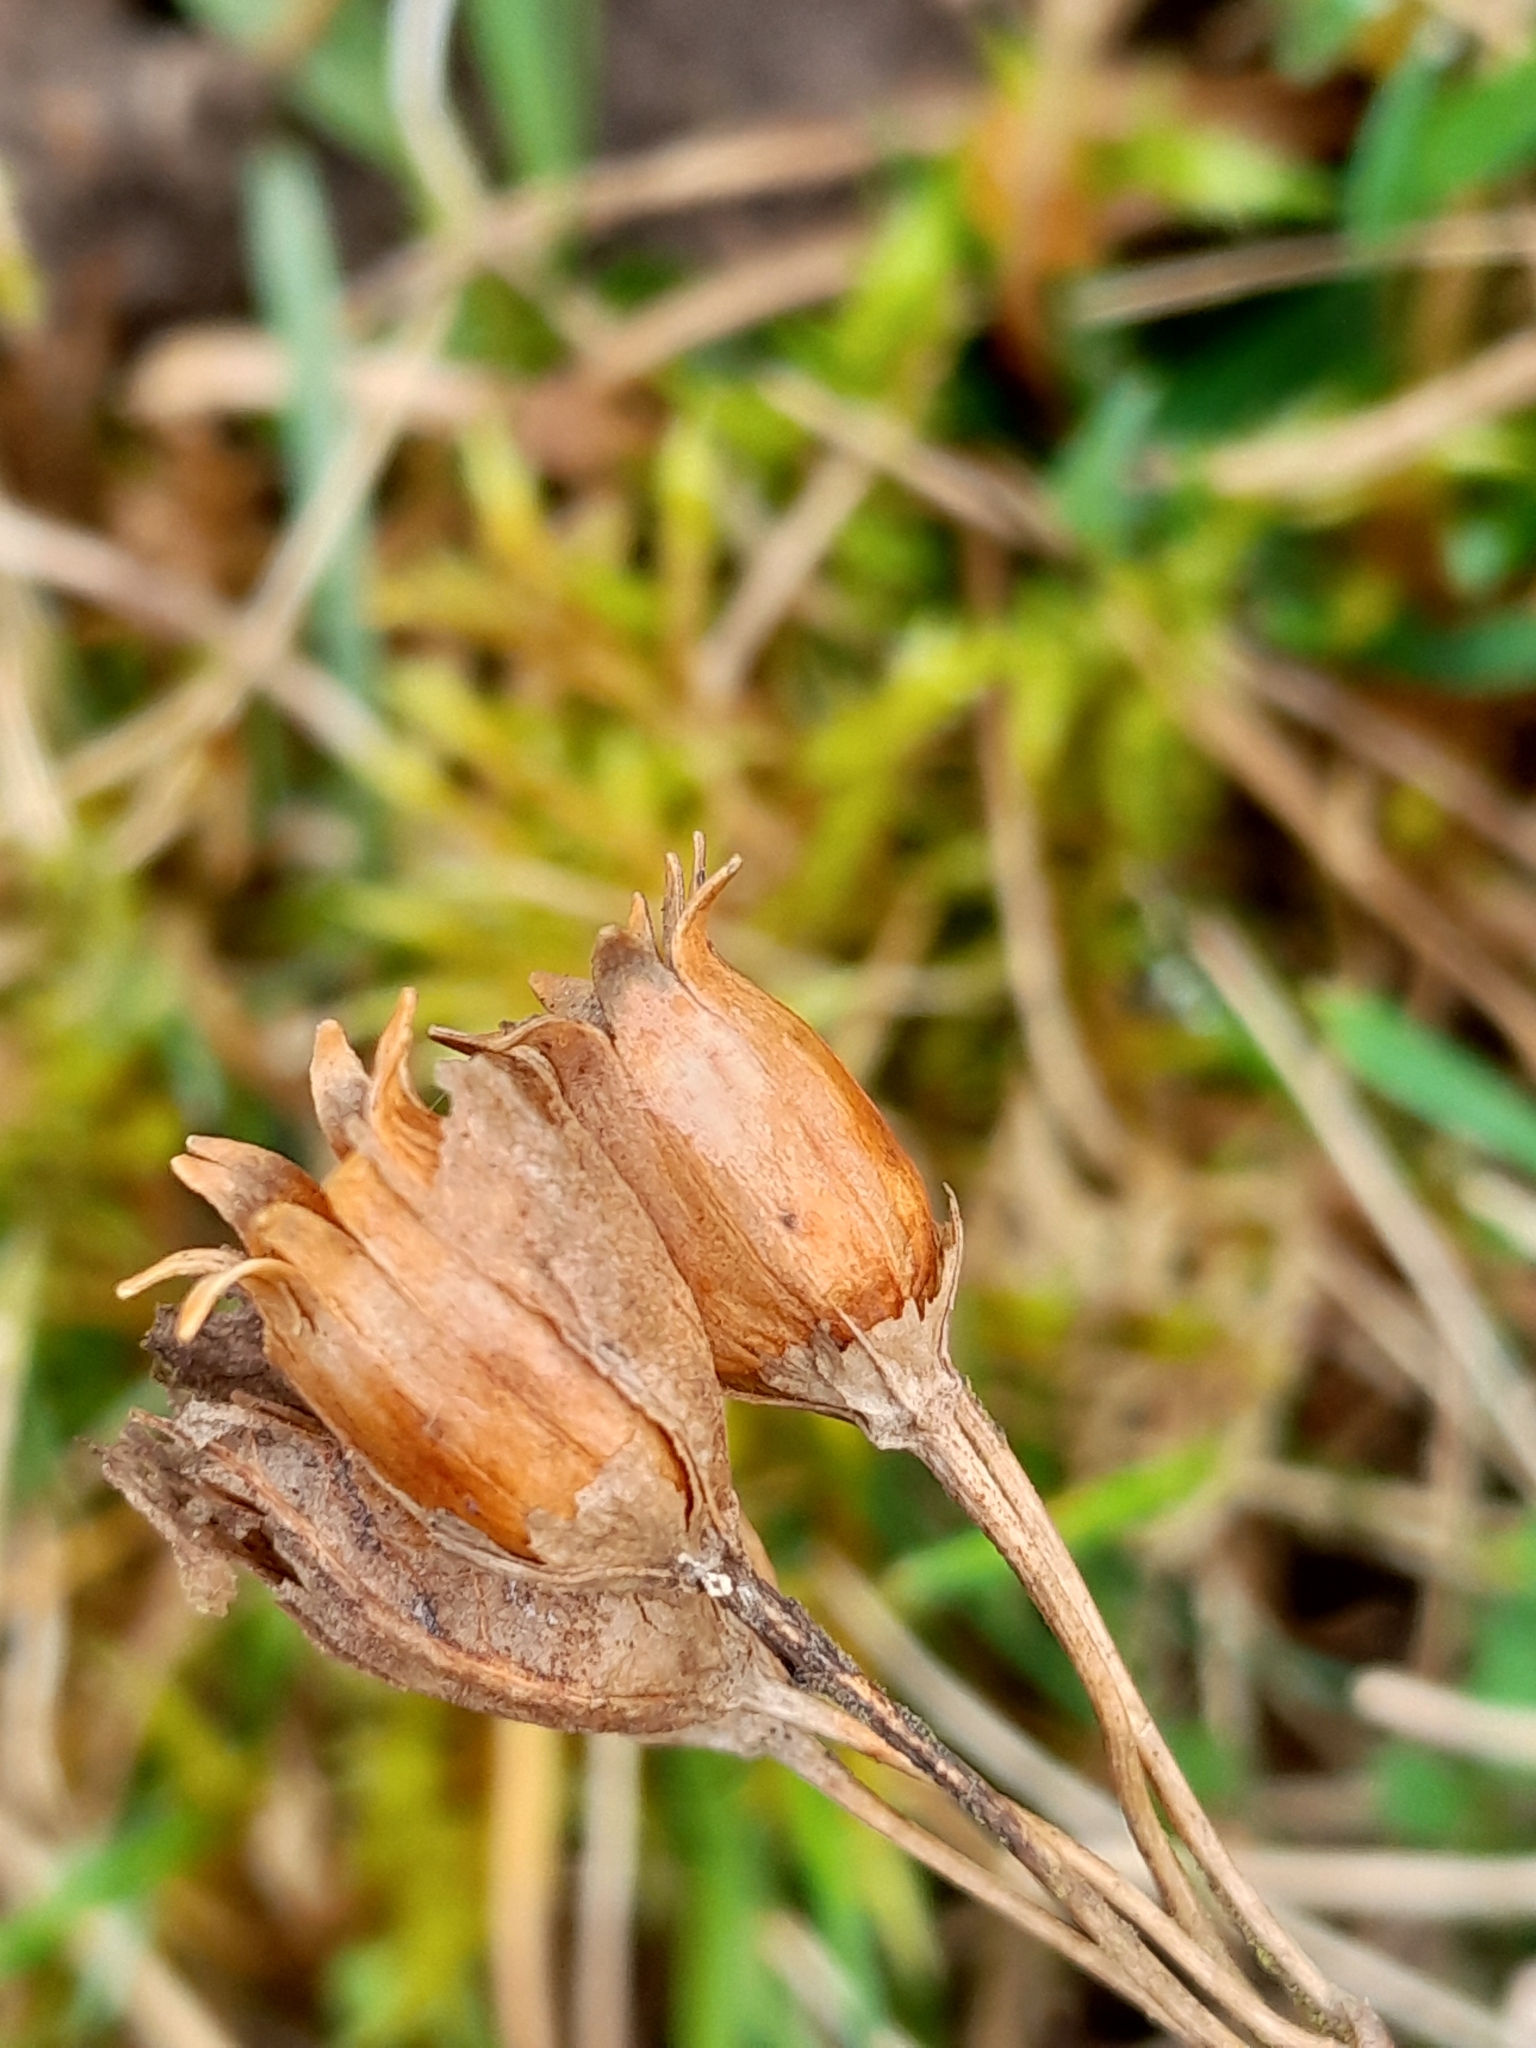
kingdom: Plantae
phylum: Tracheophyta
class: Magnoliopsida
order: Ericales
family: Primulaceae
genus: Primula
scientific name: Primula veris
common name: Cowslip
